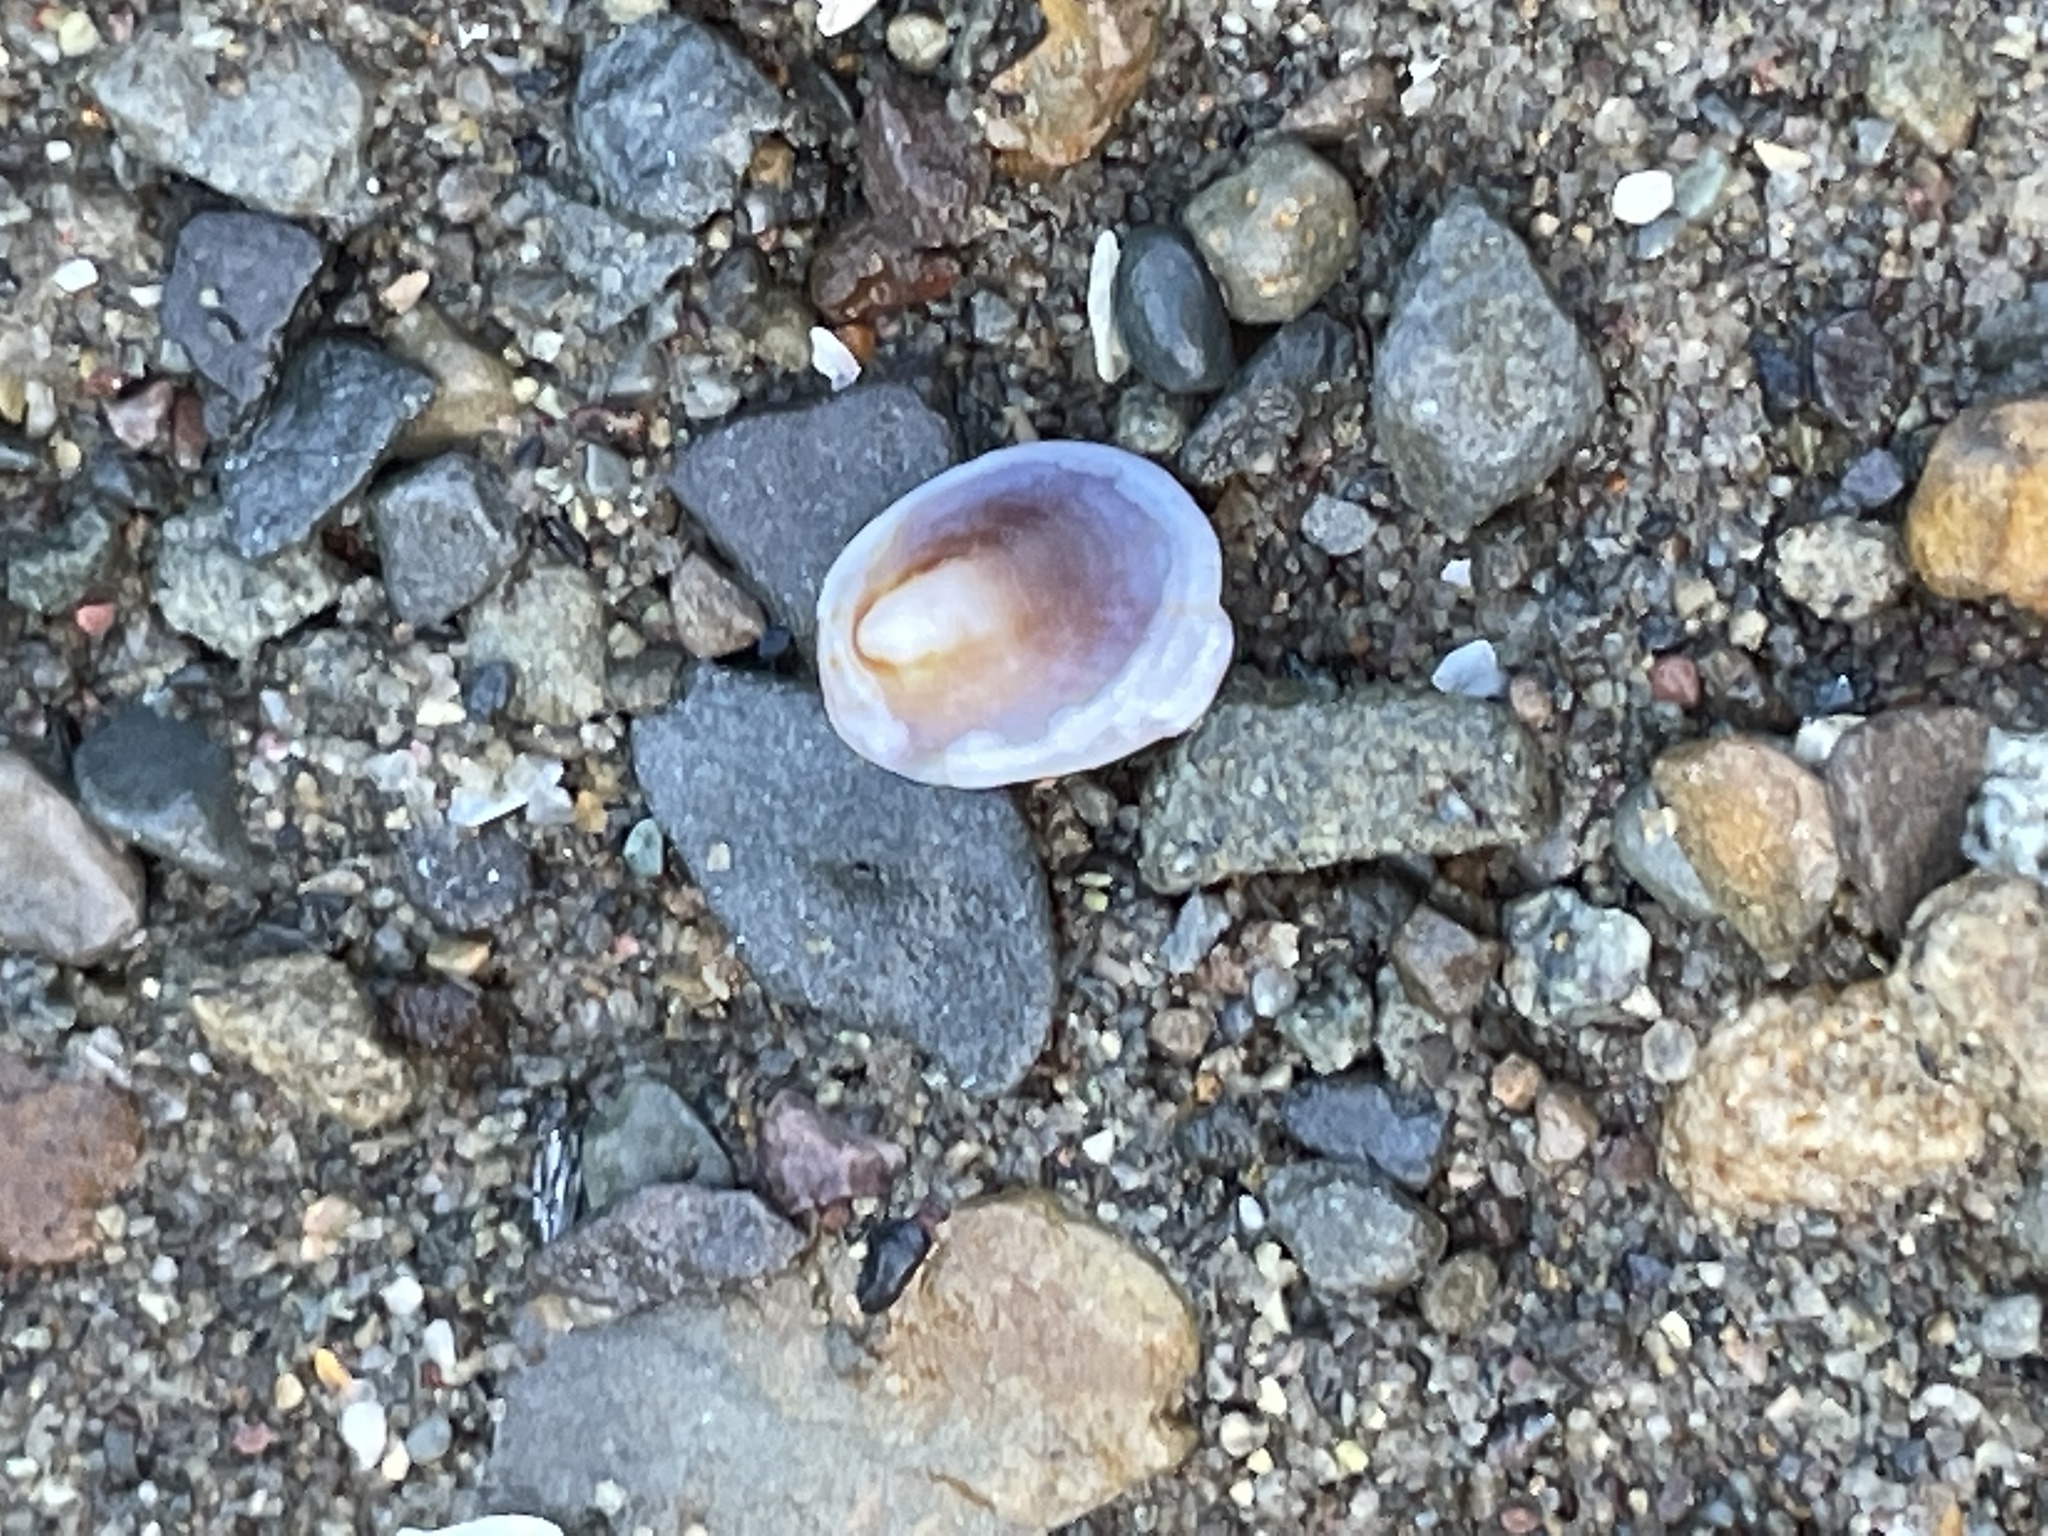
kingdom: Animalia
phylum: Mollusca
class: Gastropoda
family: Lottiidae
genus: Testudinalia
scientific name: Testudinalia testudinalis
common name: Common tortoiseshell limpet
